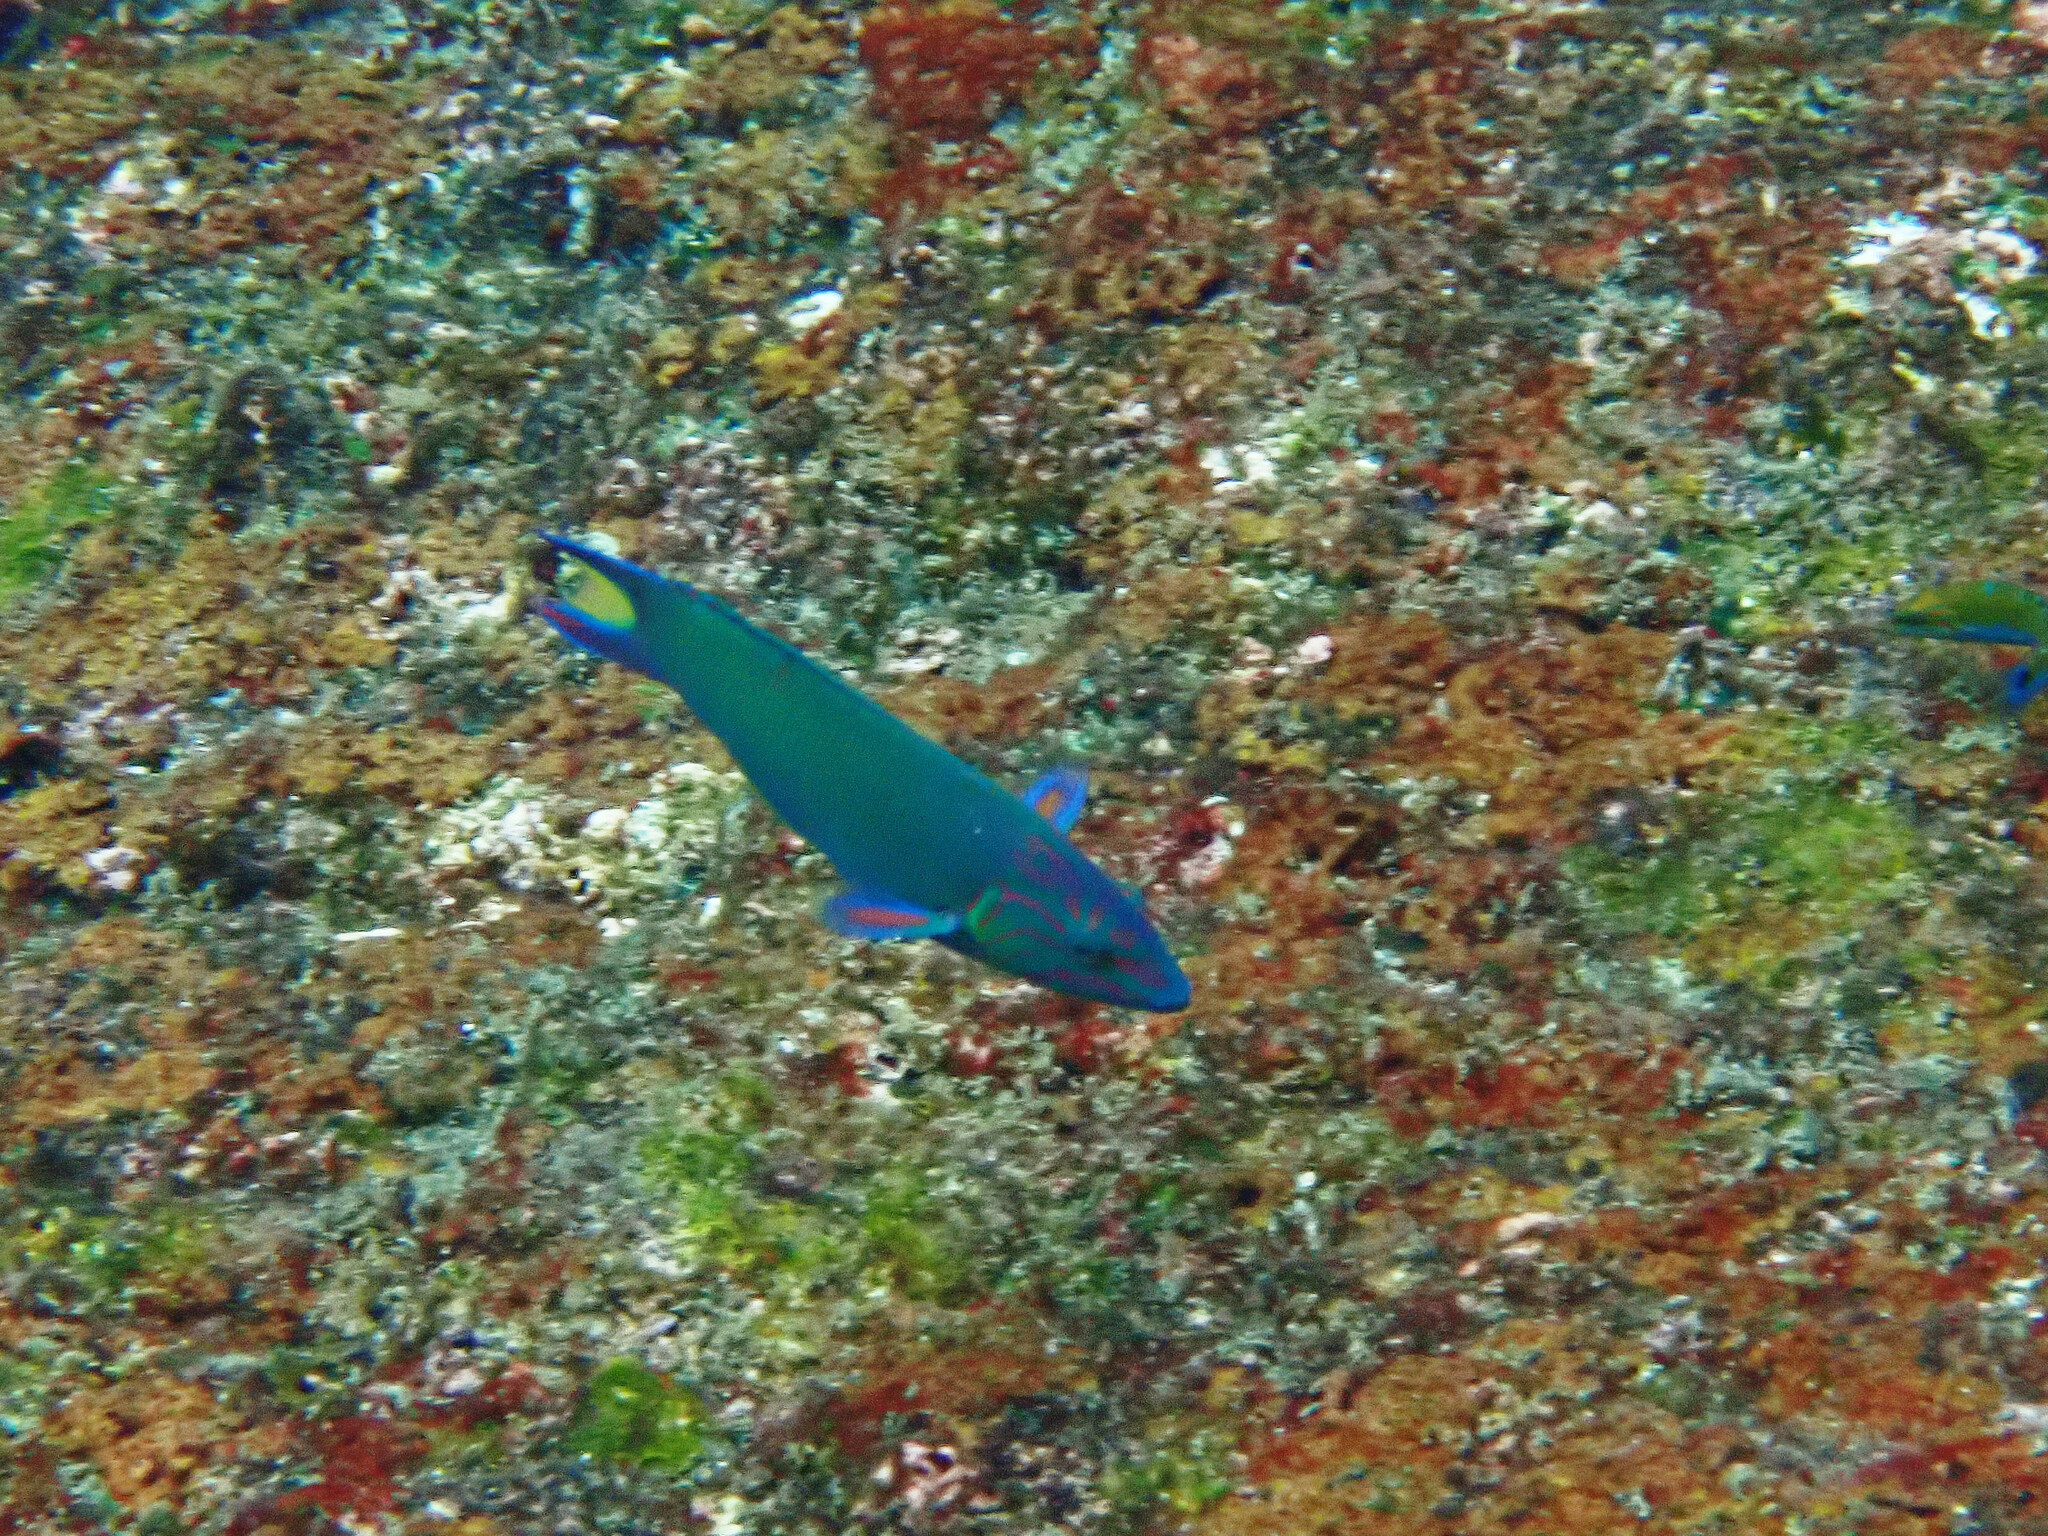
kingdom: Animalia
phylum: Chordata
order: Perciformes
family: Labridae
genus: Thalassoma
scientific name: Thalassoma lunare
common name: Blue wrasse
